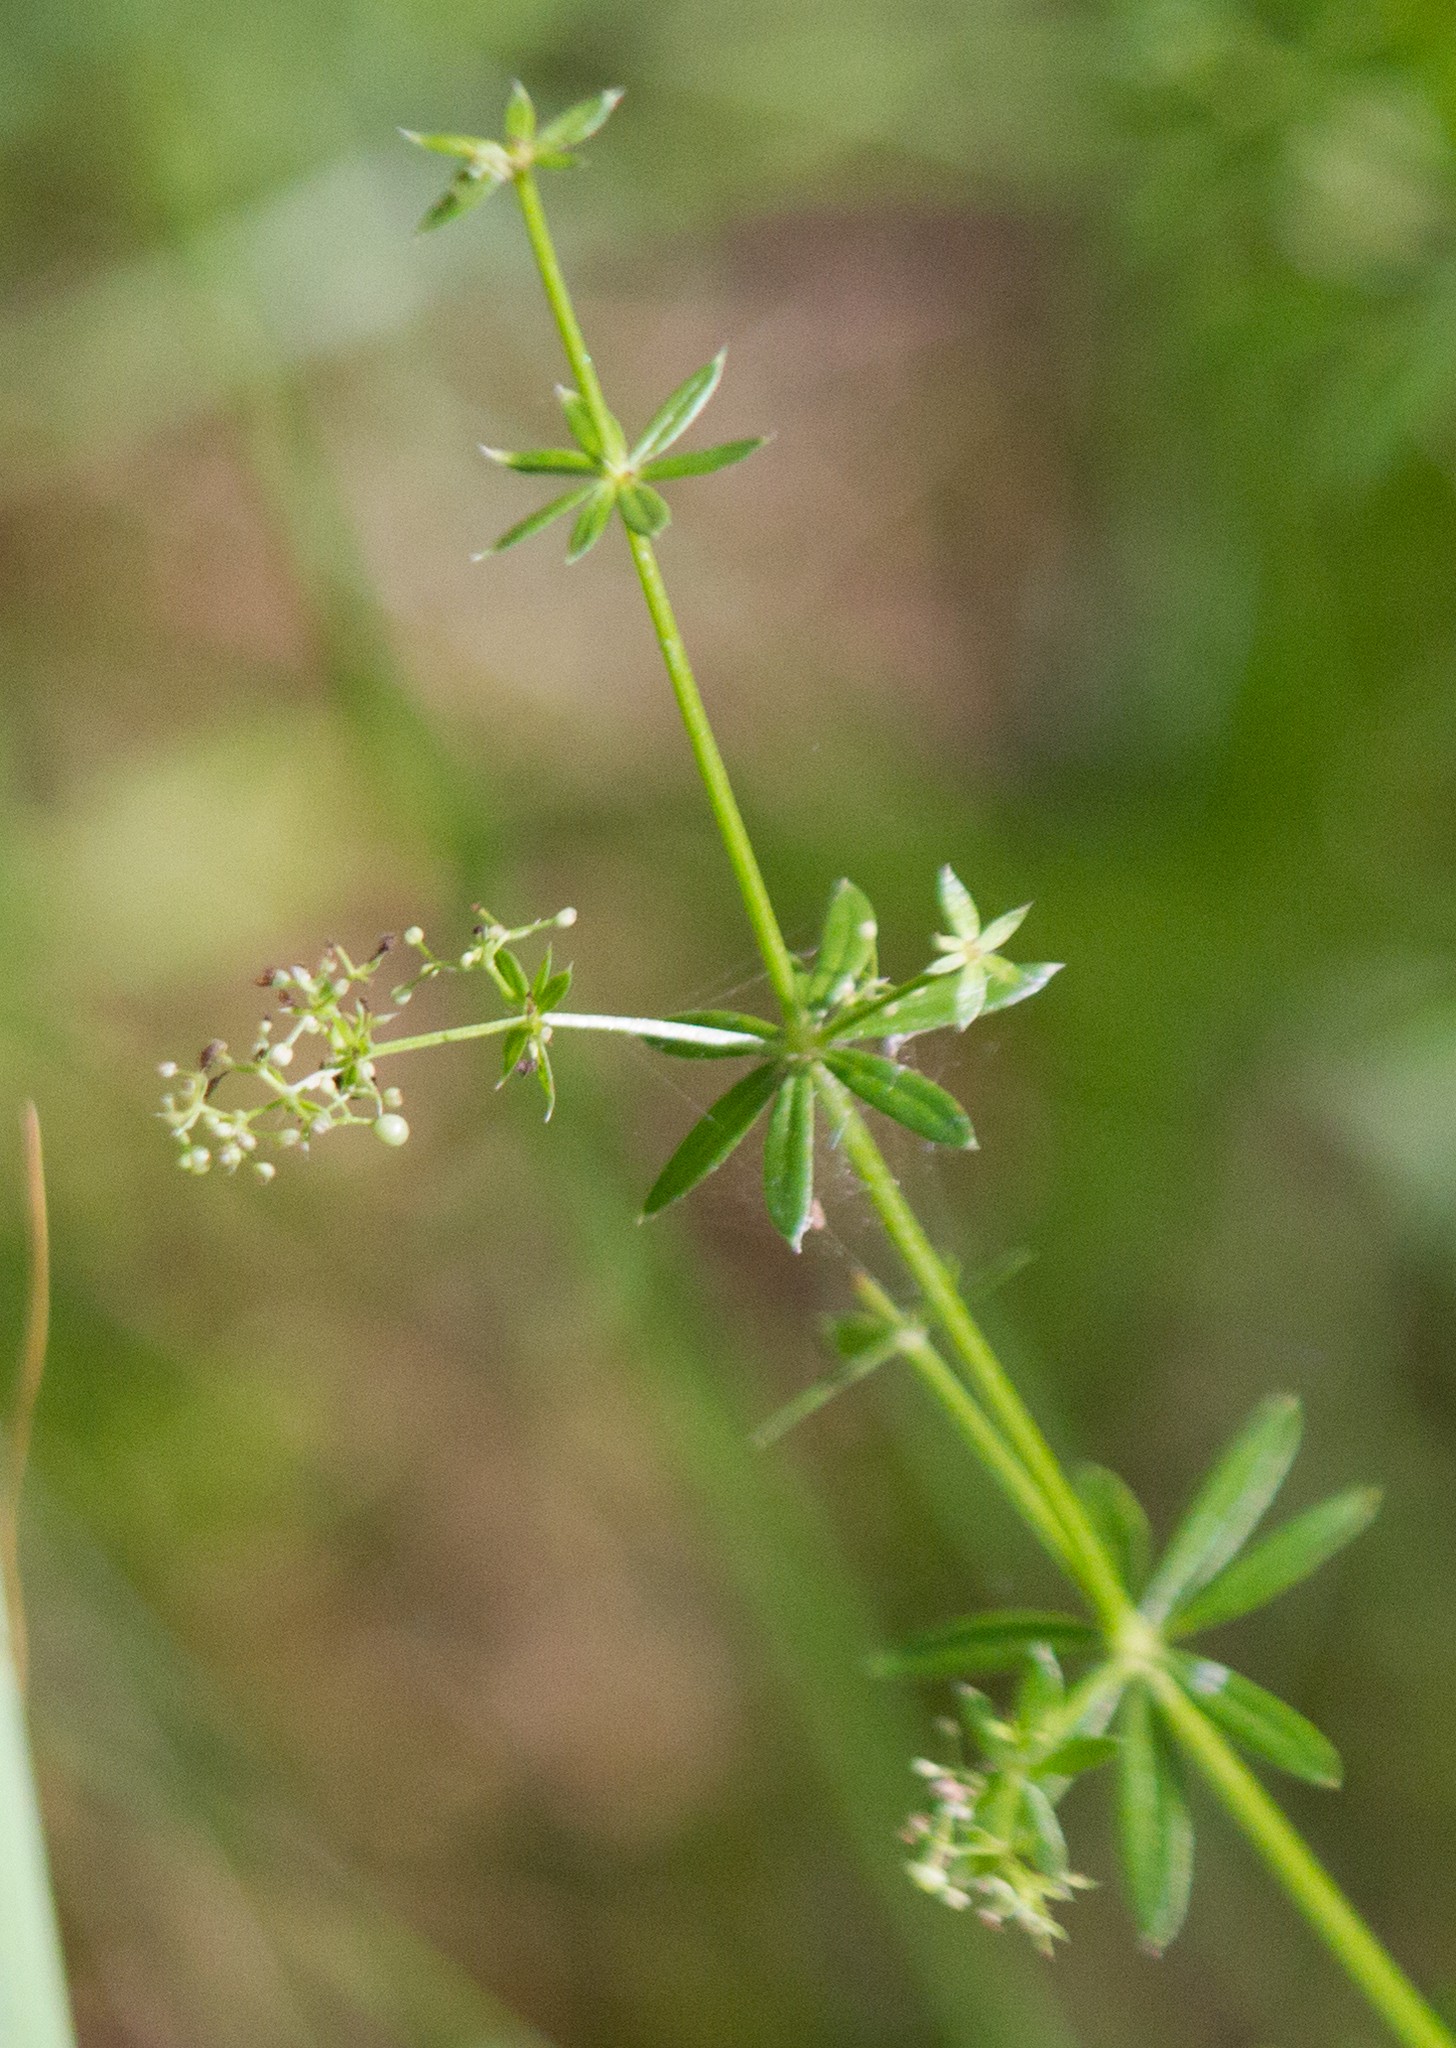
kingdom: Plantae
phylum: Tracheophyta
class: Magnoliopsida
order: Gentianales
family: Rubiaceae
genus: Galium
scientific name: Galium mollugo
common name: Hedge bedstraw
